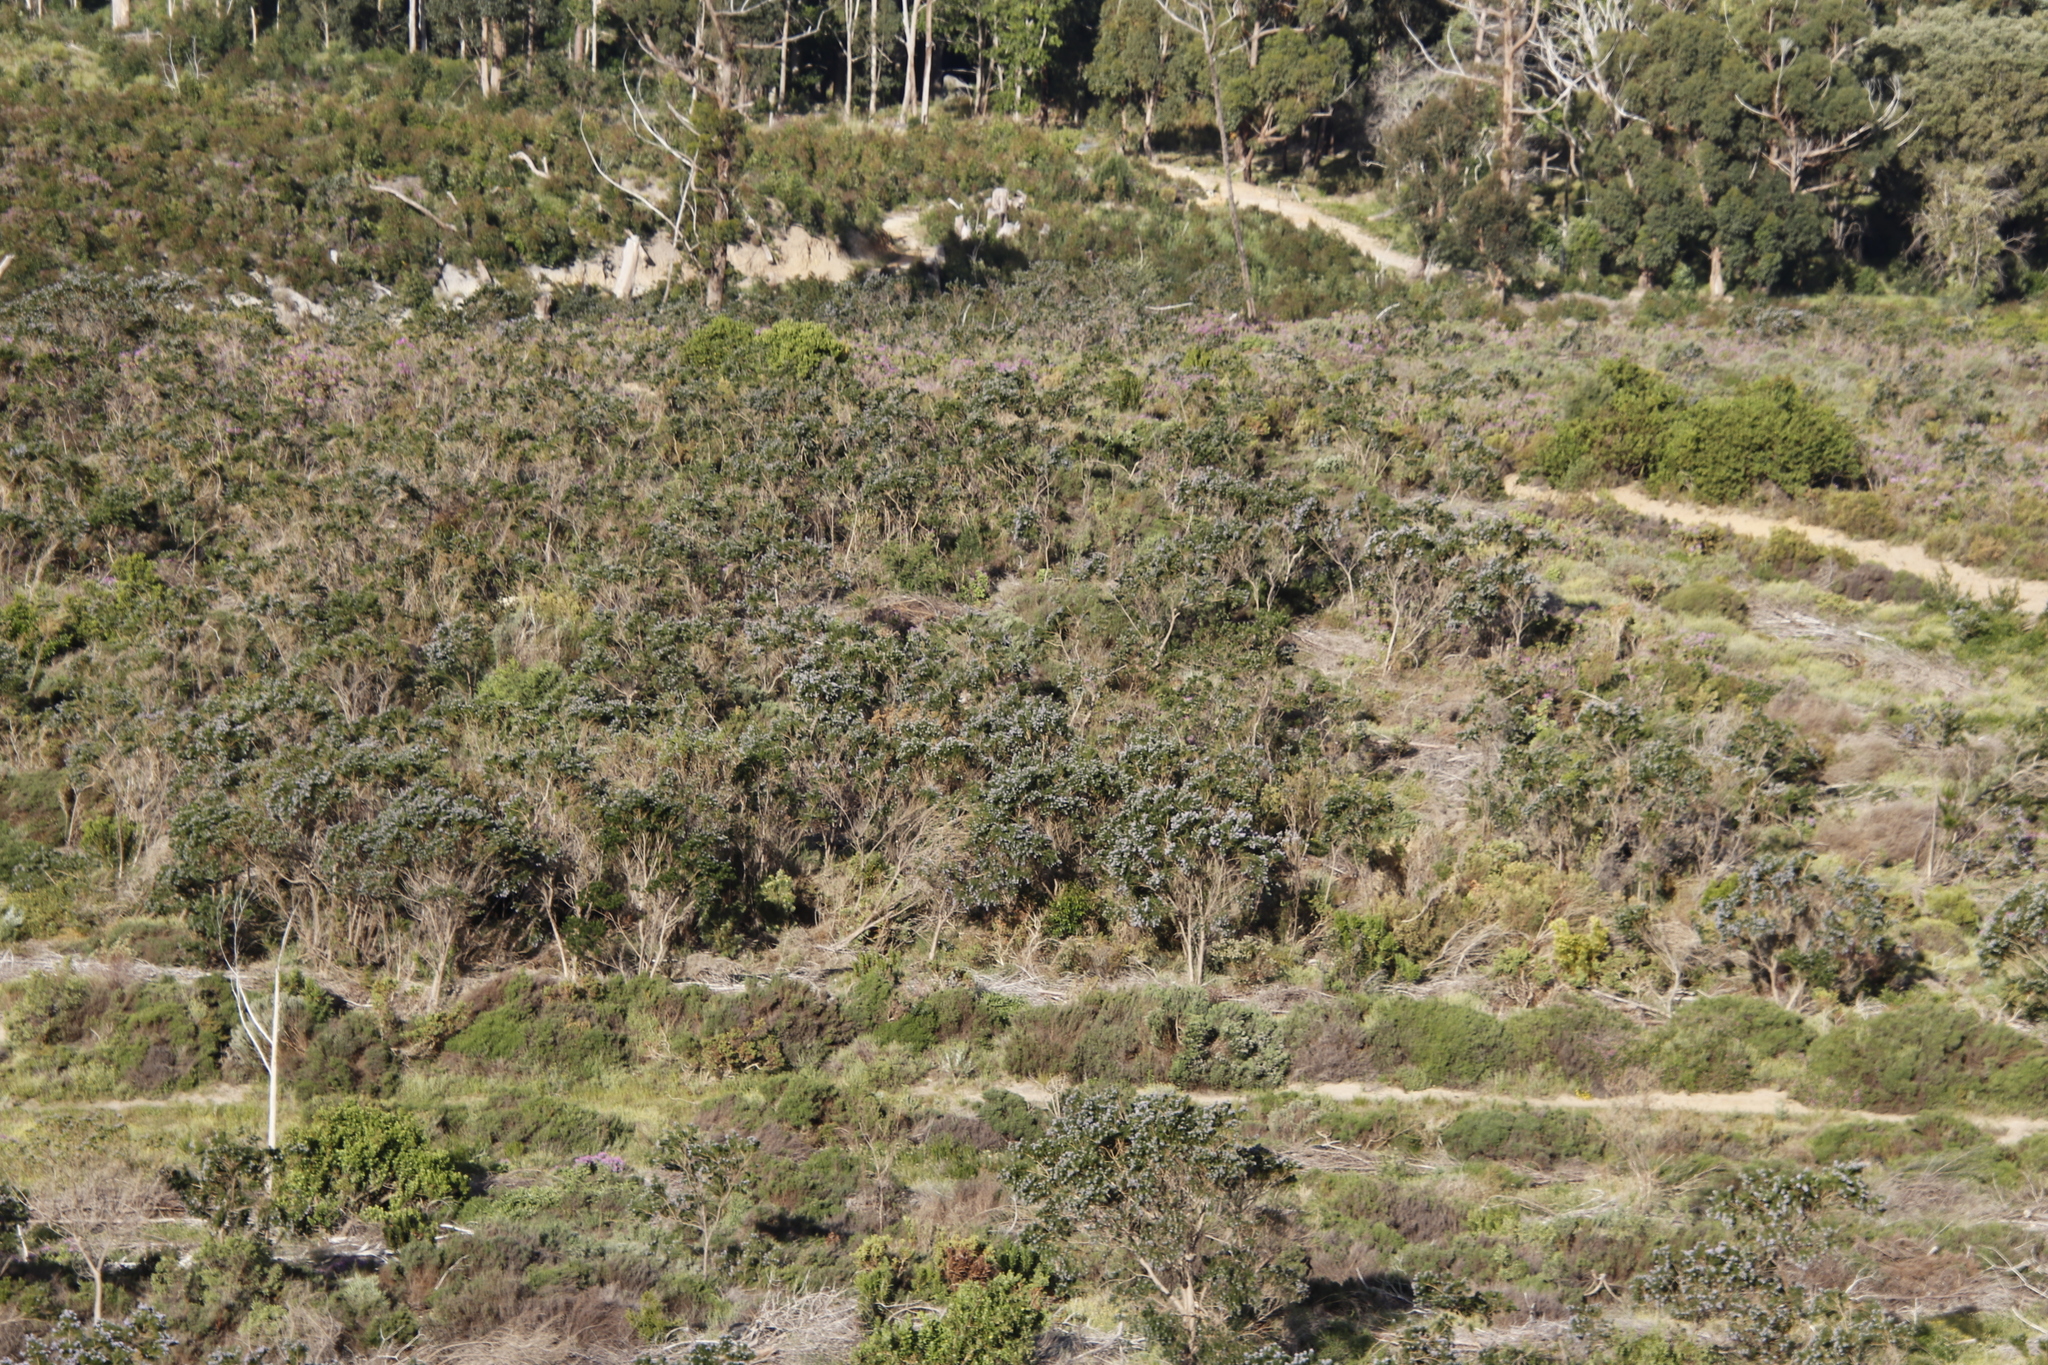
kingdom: Plantae
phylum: Tracheophyta
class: Magnoliopsida
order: Fabales
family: Fabaceae
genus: Psoralea
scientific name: Psoralea pinnata
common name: African scurfpea
